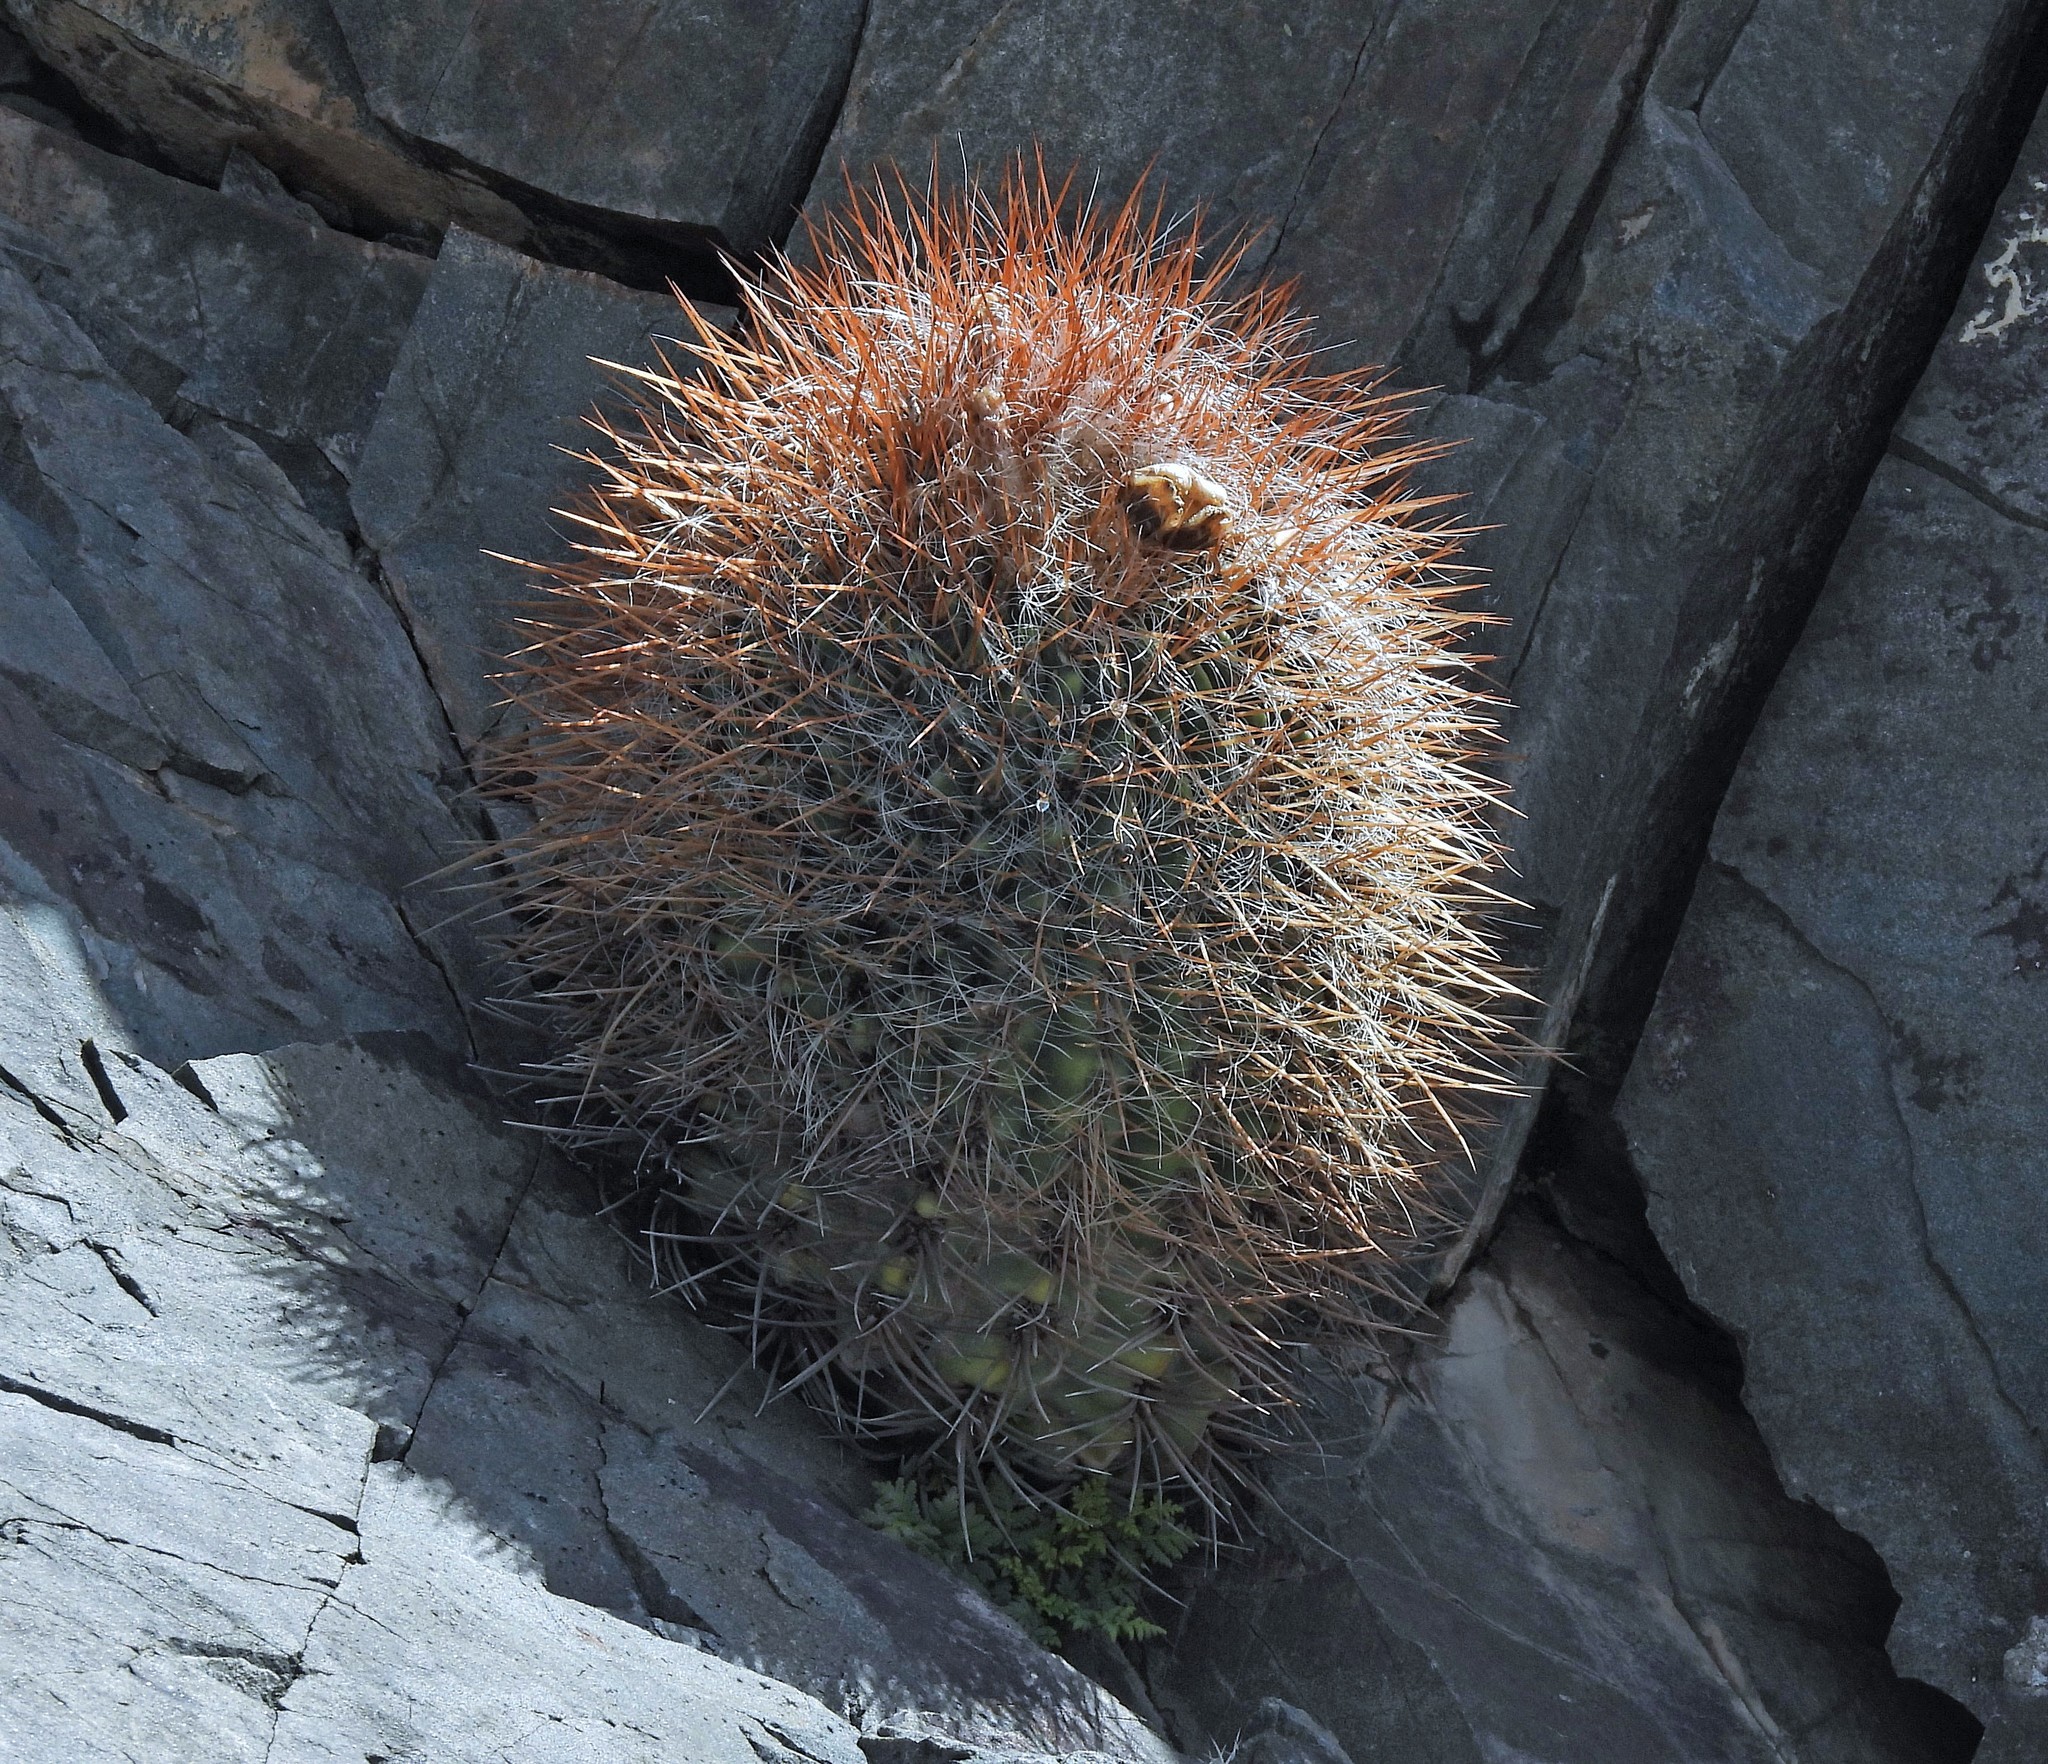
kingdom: Plantae
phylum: Tracheophyta
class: Magnoliopsida
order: Caryophyllales
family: Cactaceae
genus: Denmoza
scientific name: Denmoza rhodacantha
